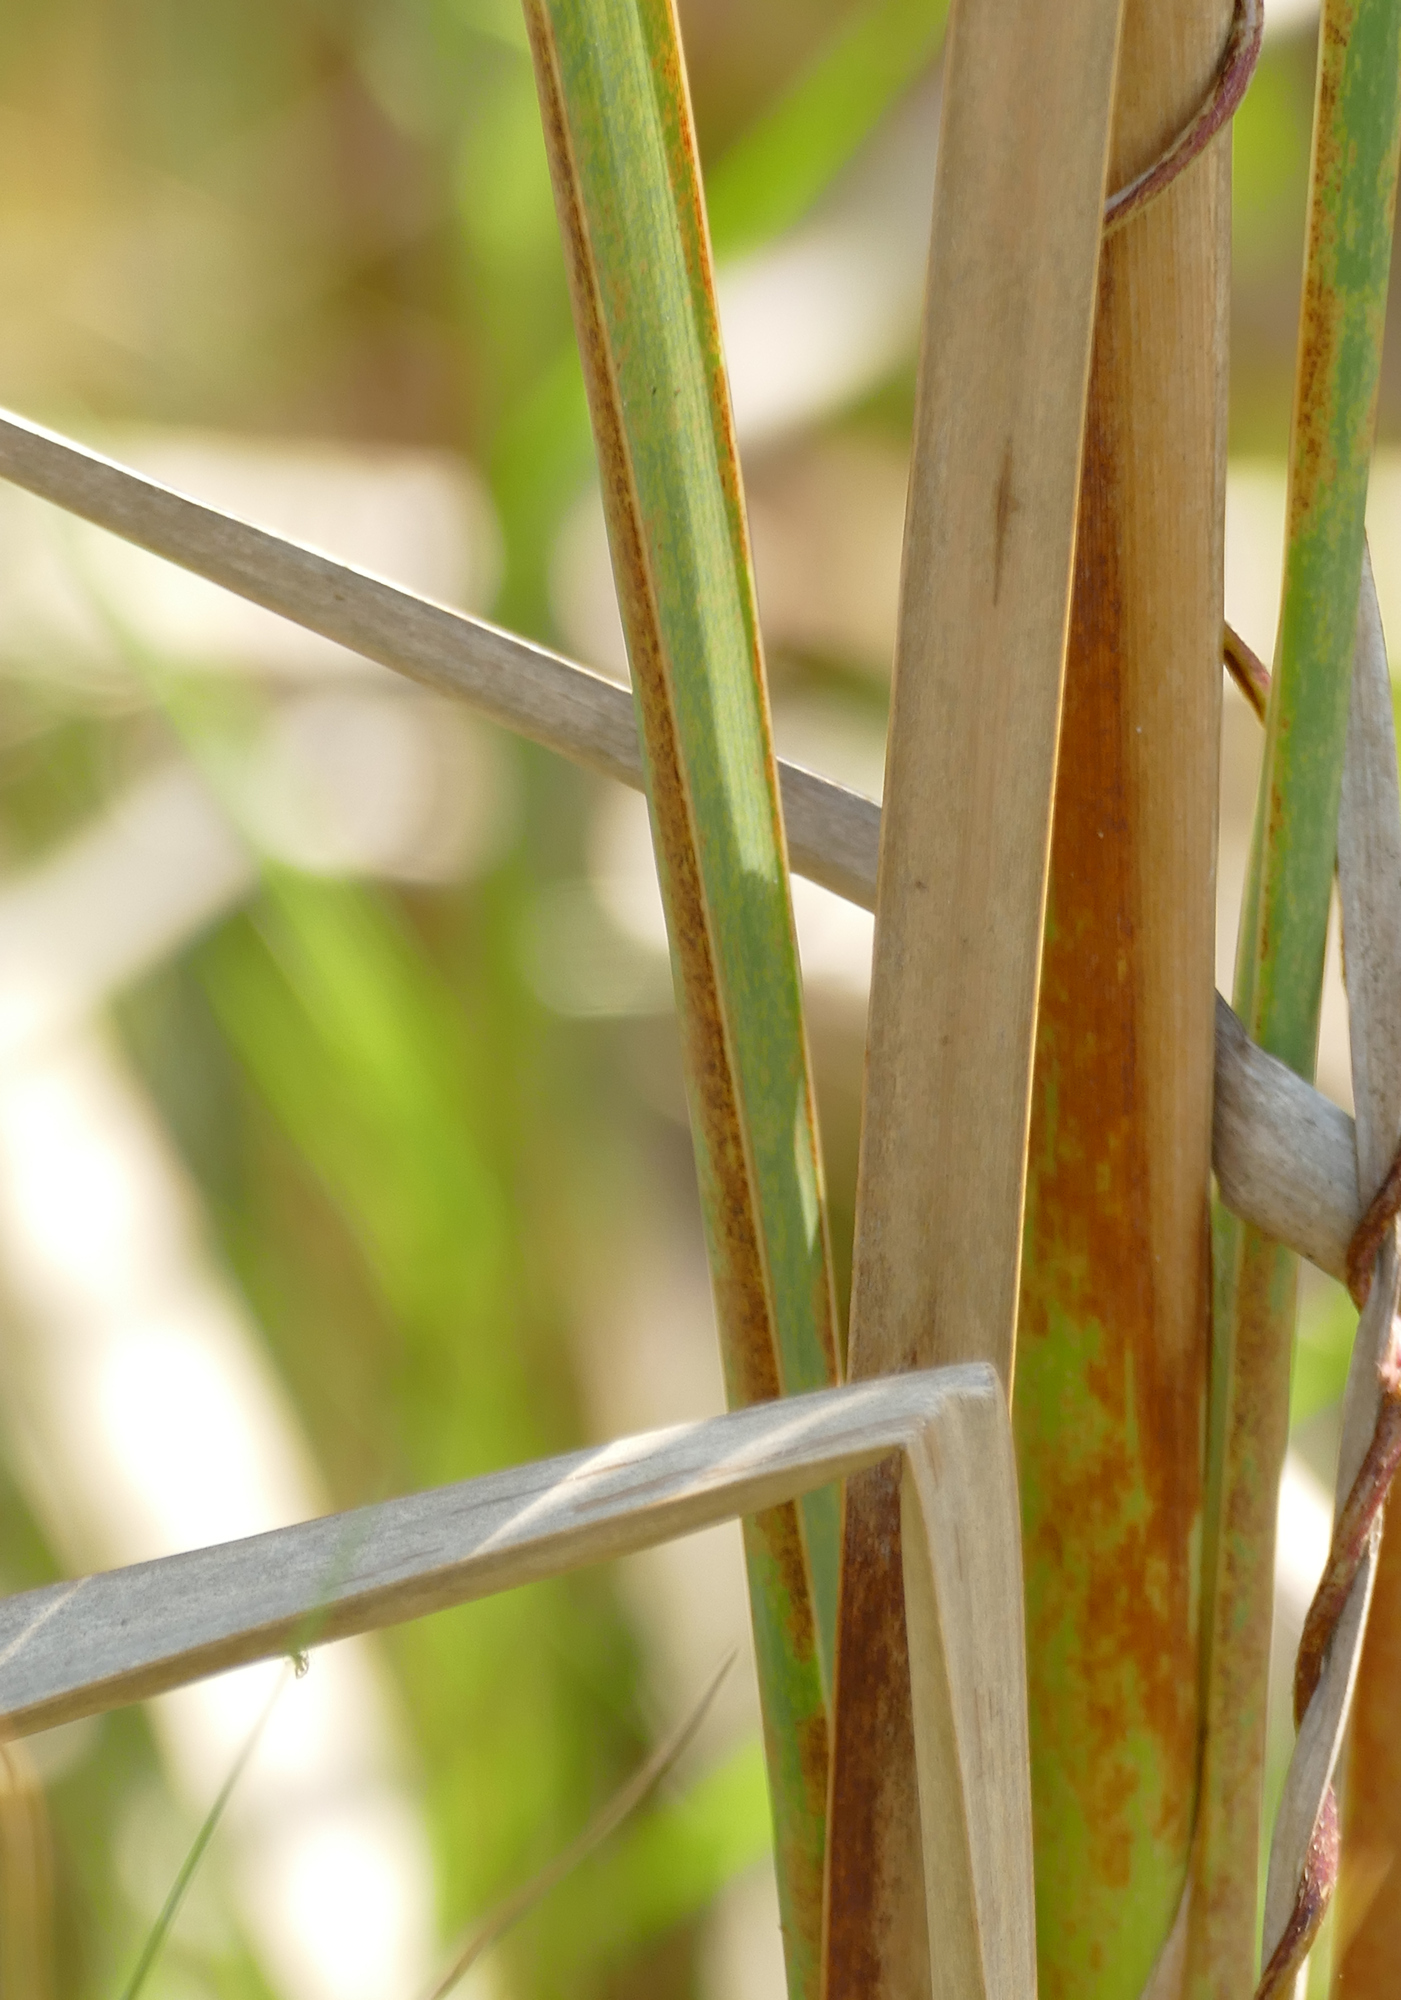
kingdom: Plantae
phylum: Tracheophyta
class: Liliopsida
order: Poales
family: Typhaceae
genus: Typha
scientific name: Typha domingensis
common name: Southern cattail
